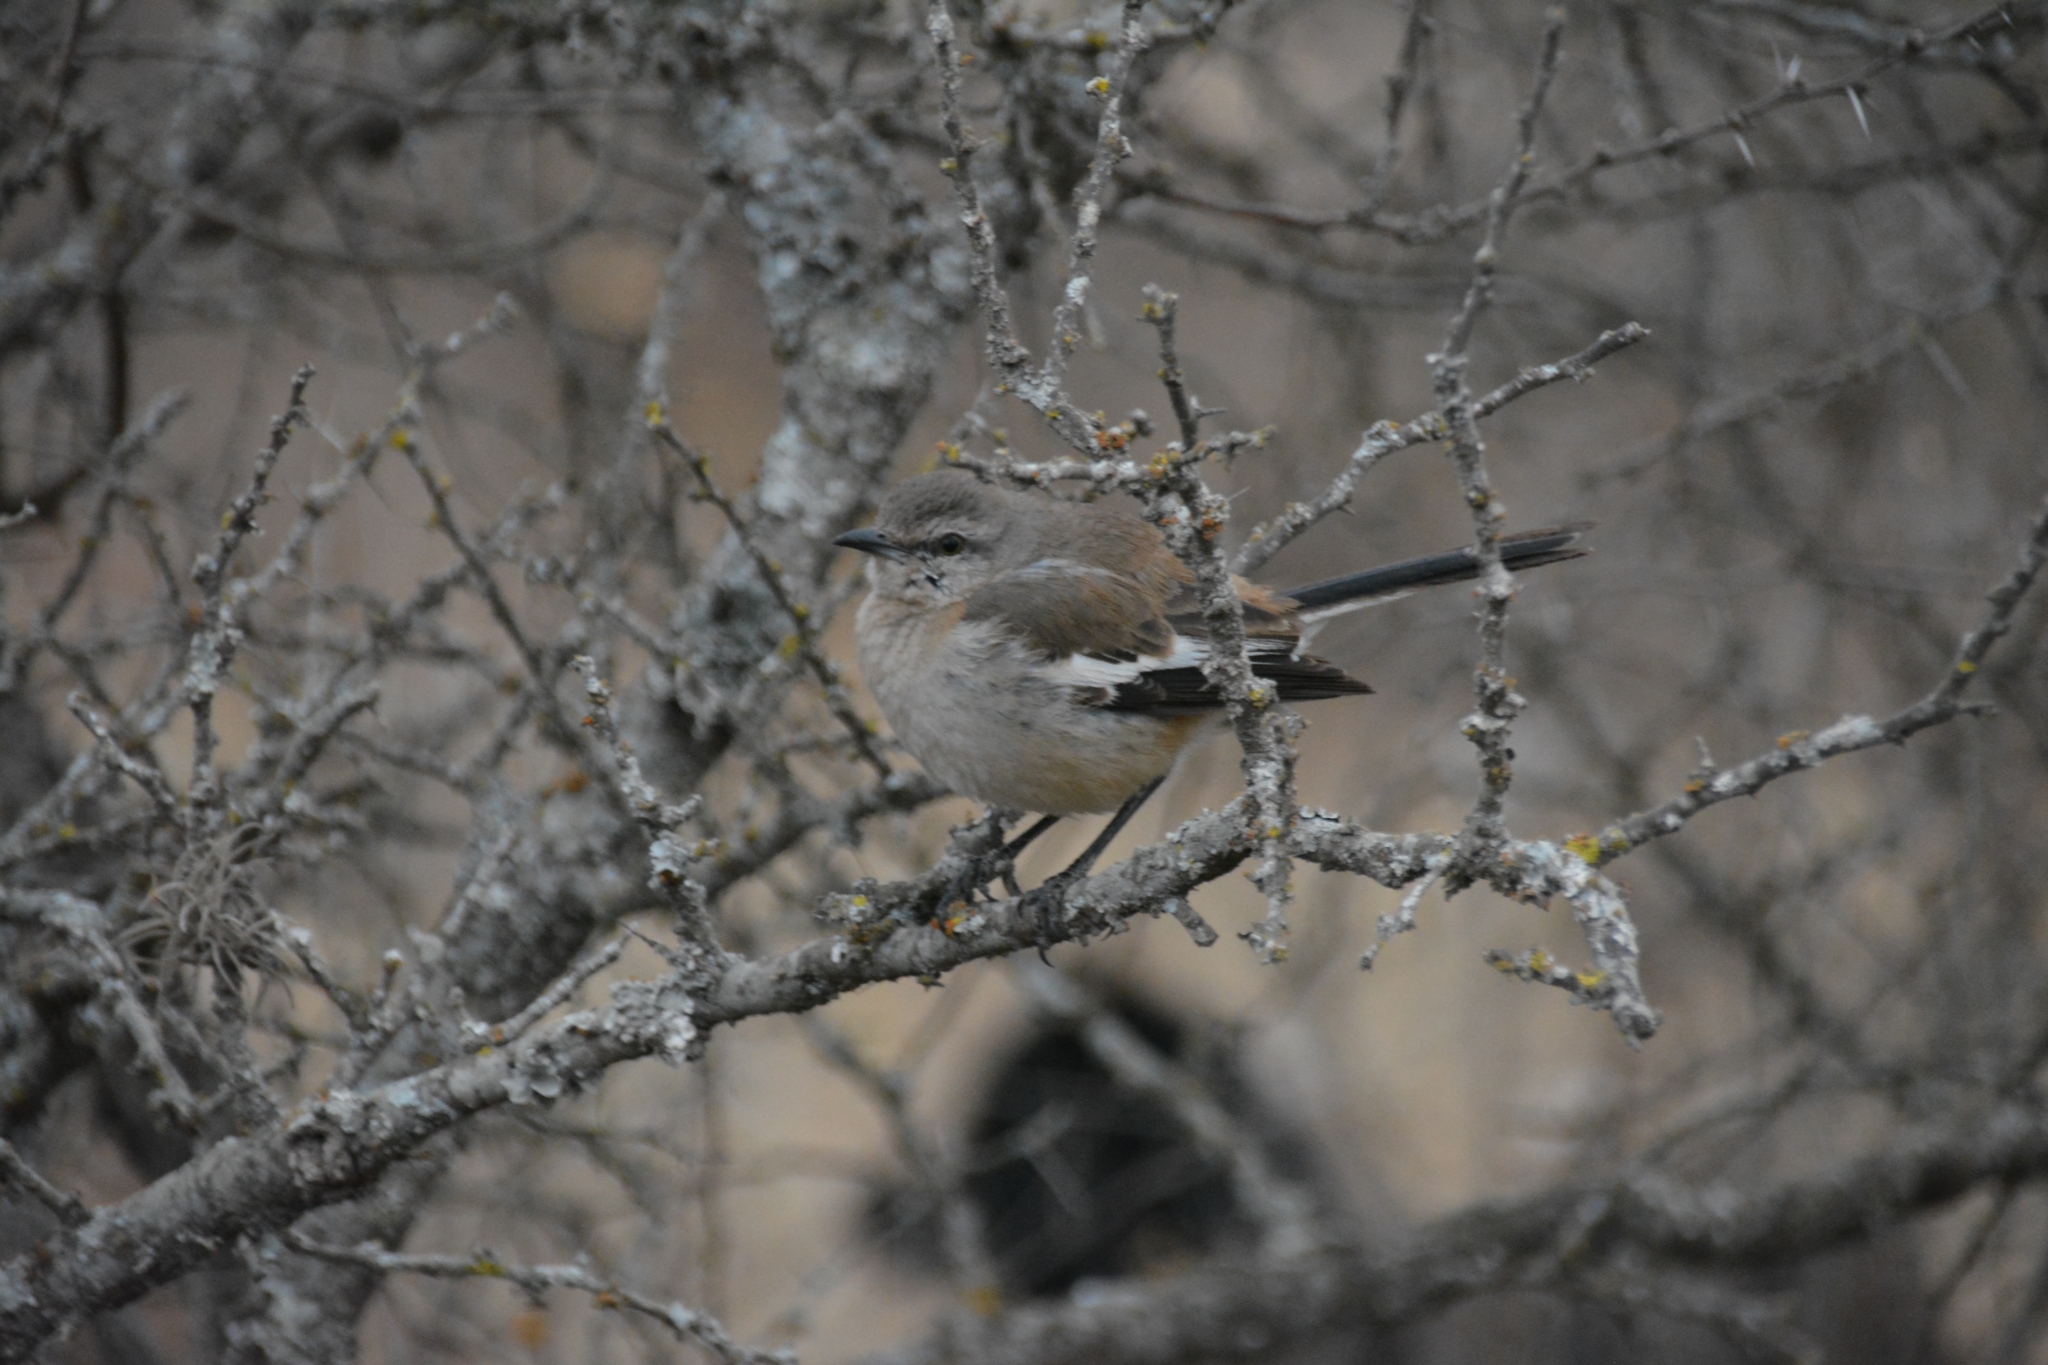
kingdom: Animalia
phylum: Chordata
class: Aves
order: Passeriformes
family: Mimidae
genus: Mimus
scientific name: Mimus triurus
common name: White-banded mockingbird
